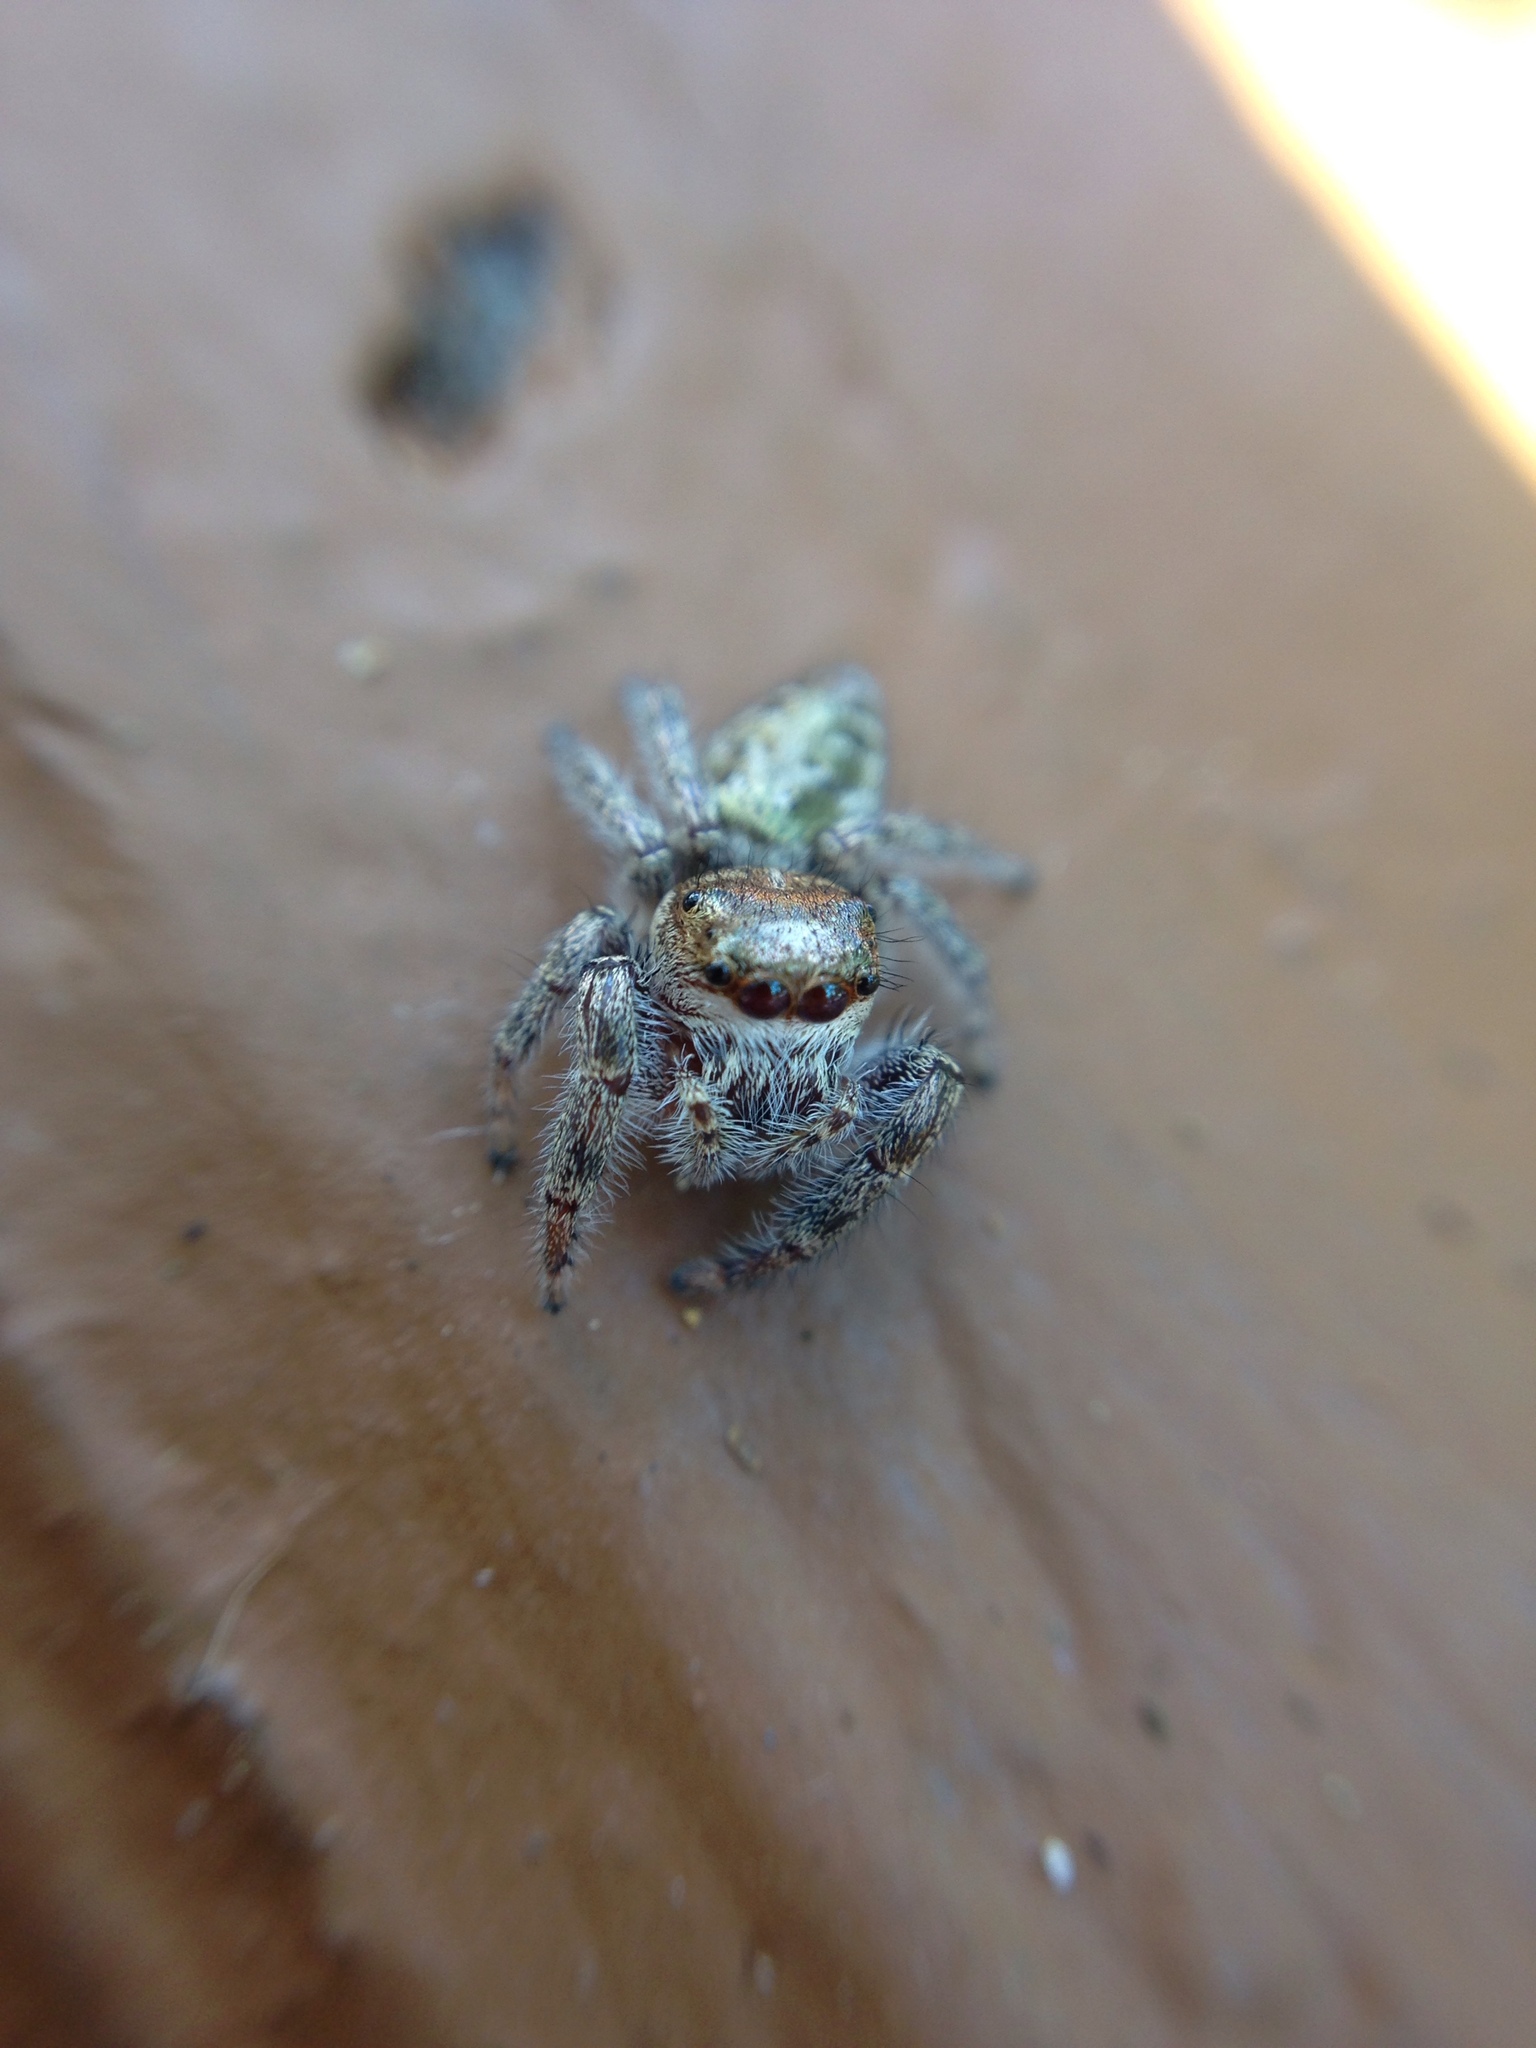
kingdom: Animalia
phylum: Arthropoda
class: Arachnida
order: Araneae
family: Salticidae
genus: Eris
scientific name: Eris militaris
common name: Bronze jumper
